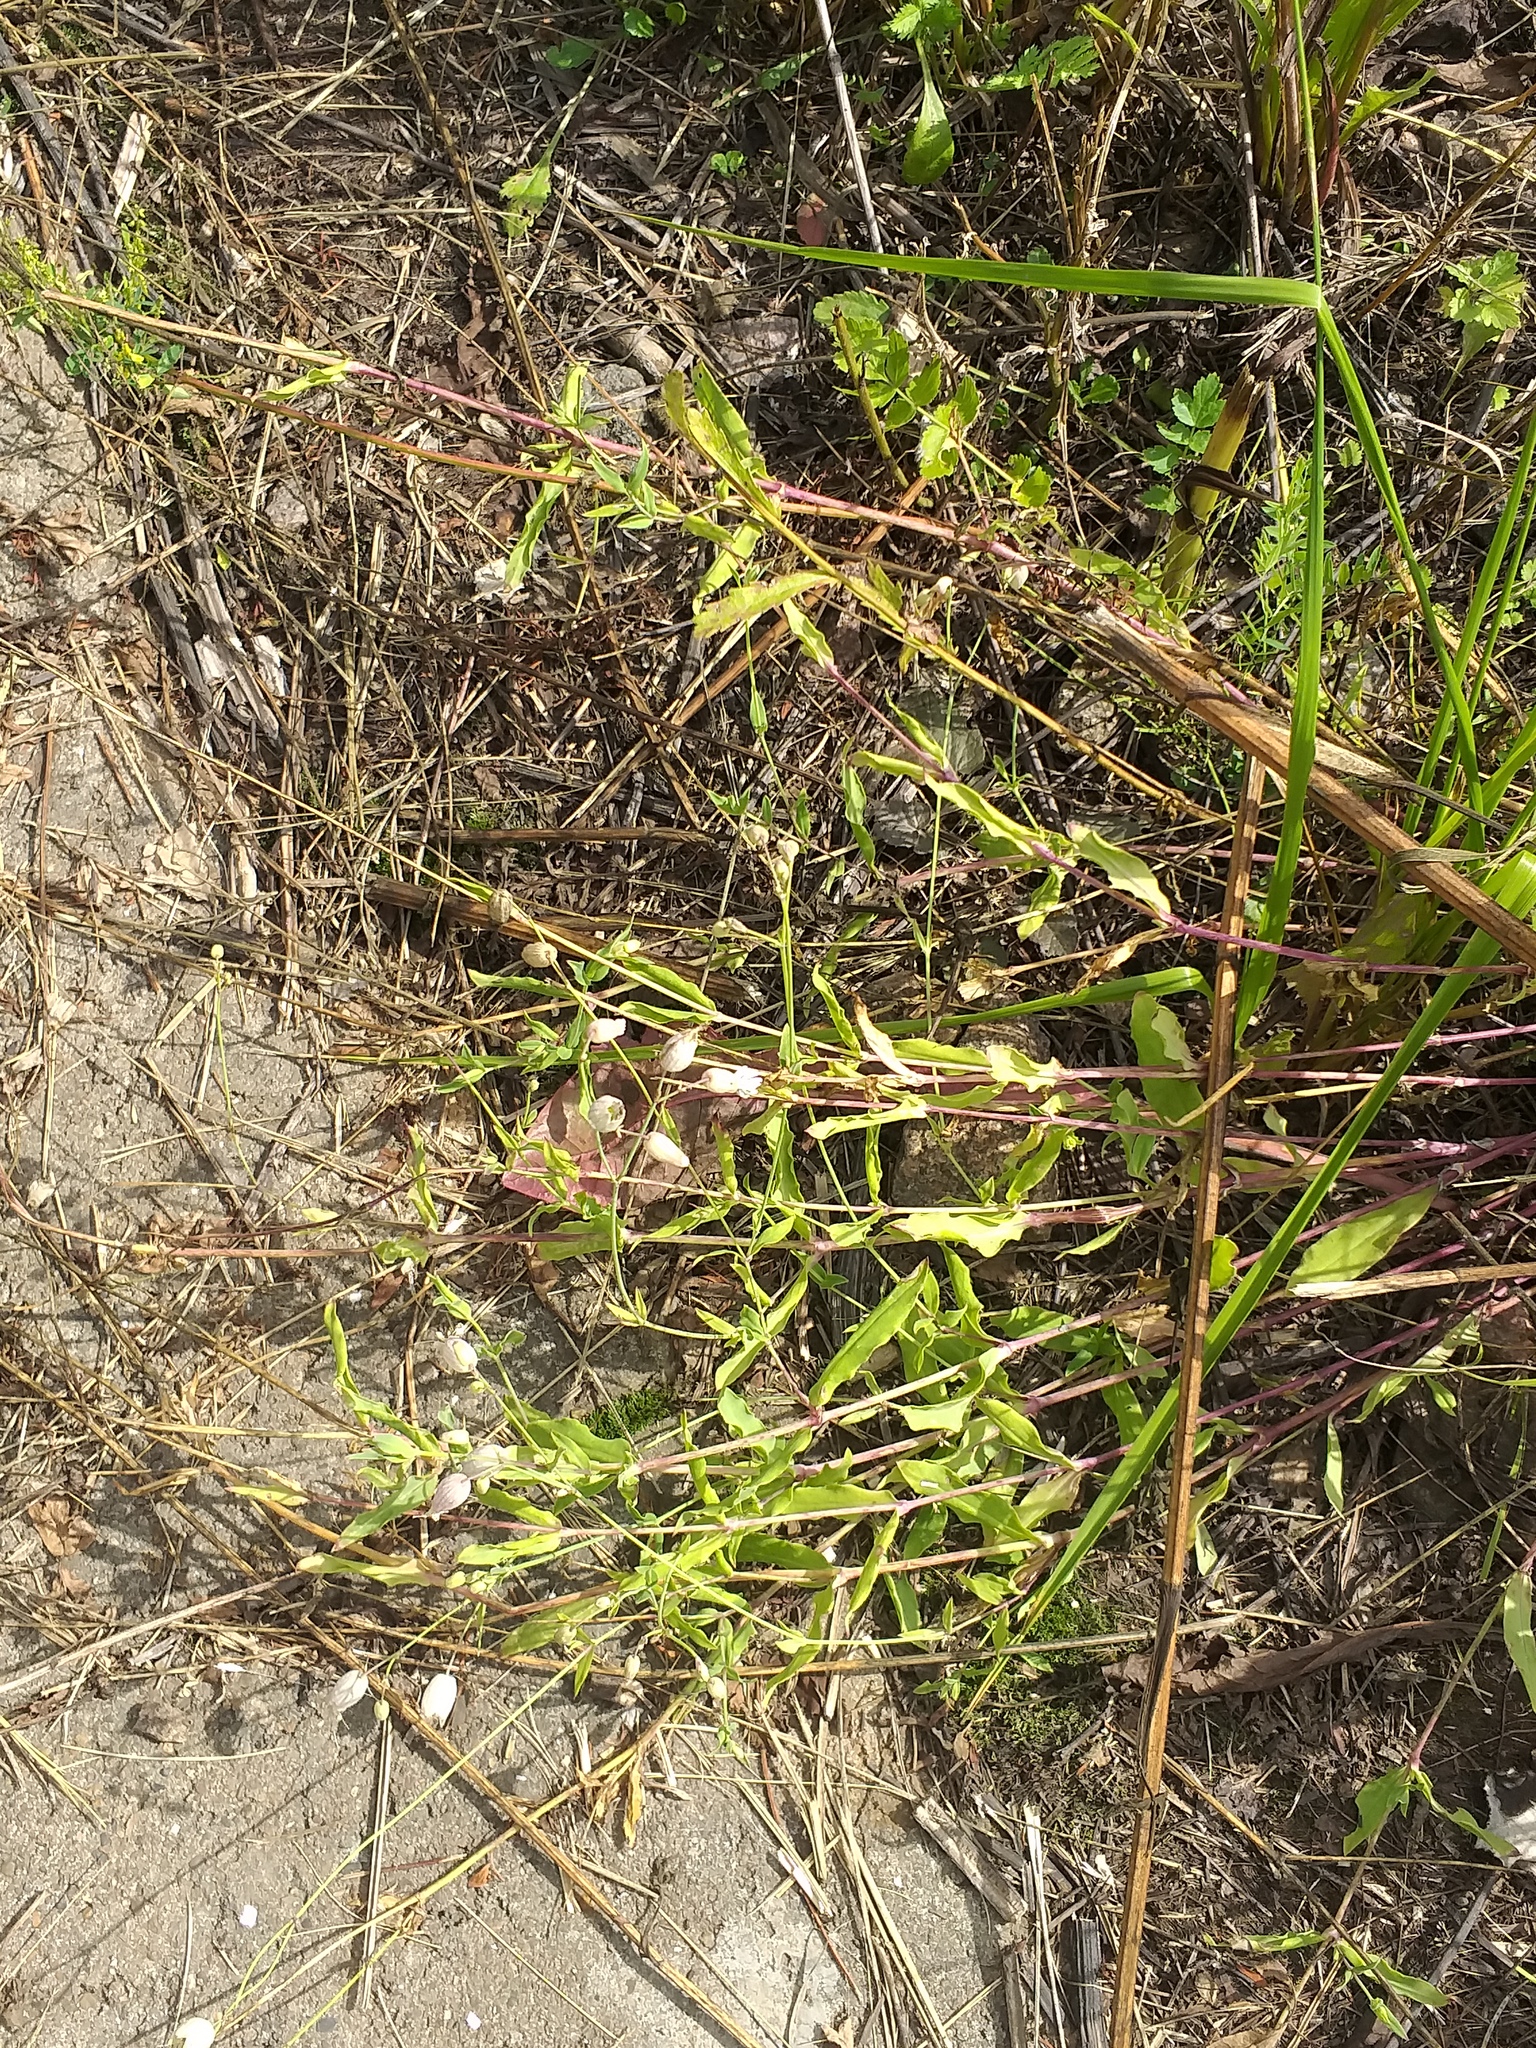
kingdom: Plantae
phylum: Tracheophyta
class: Magnoliopsida
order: Caryophyllales
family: Caryophyllaceae
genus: Silene
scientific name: Silene vulgaris
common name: Bladder campion
